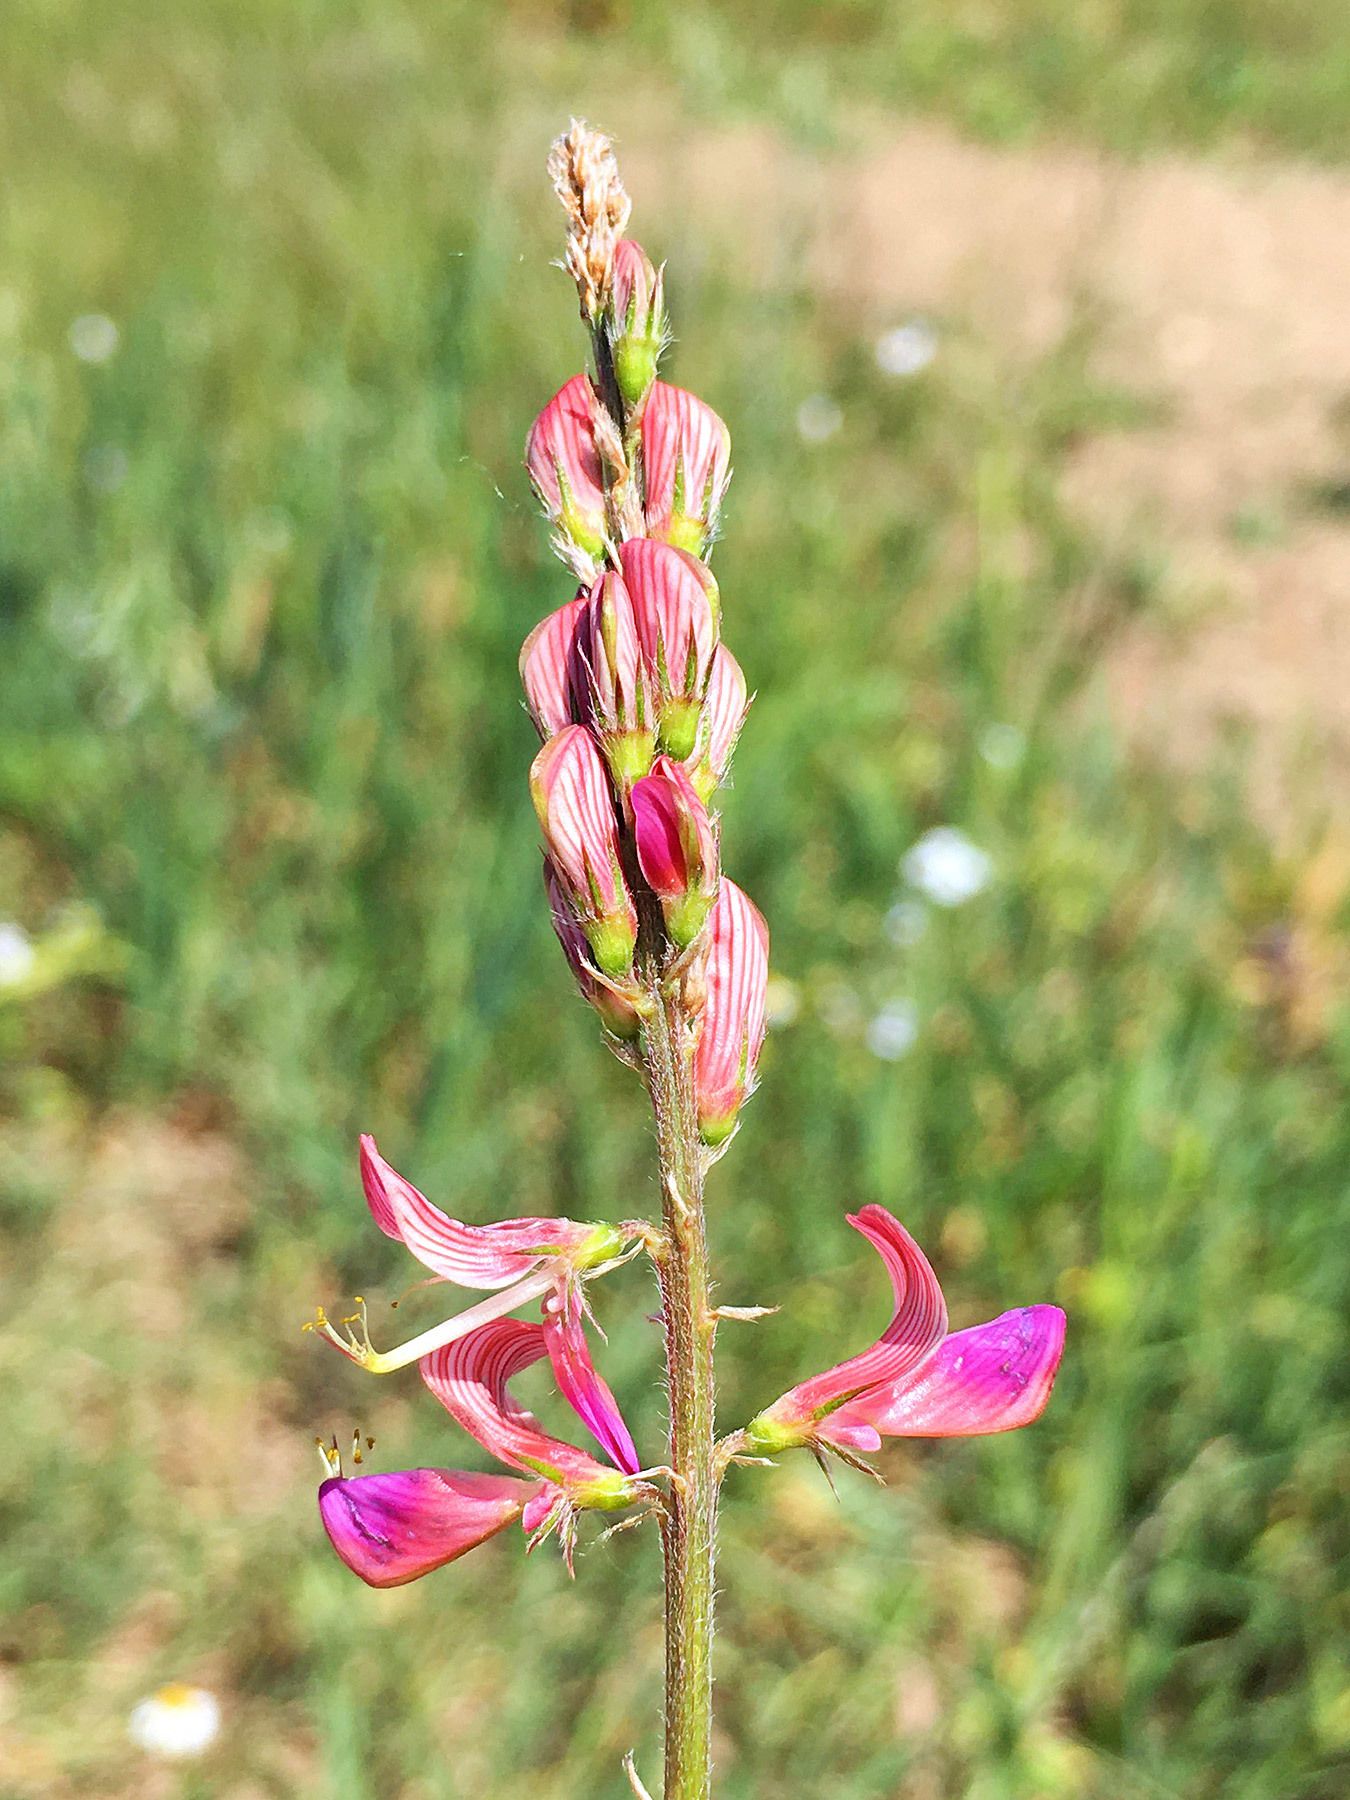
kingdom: Plantae
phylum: Tracheophyta
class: Magnoliopsida
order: Fabales
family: Fabaceae
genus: Onobrychis
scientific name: Onobrychis viciifolia
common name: Sainfoin
